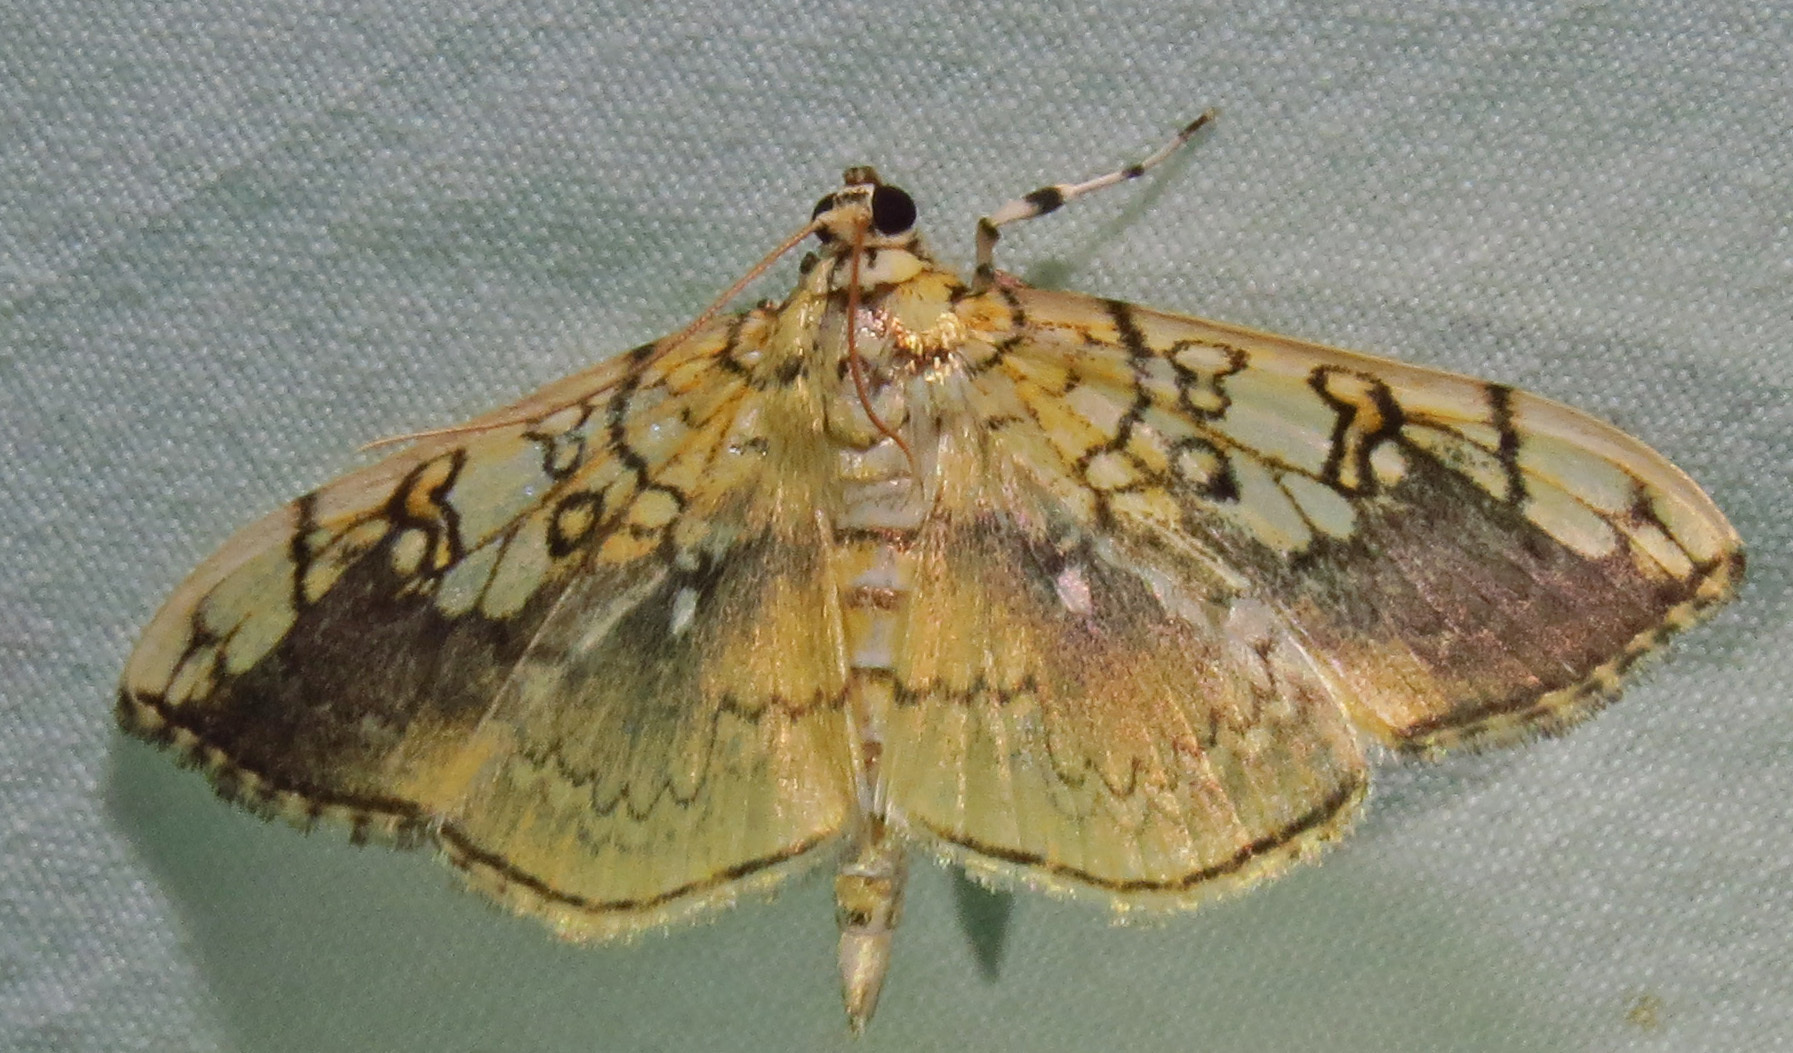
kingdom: Animalia
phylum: Arthropoda
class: Insecta
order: Lepidoptera
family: Crambidae
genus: Pantographa
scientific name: Pantographa limata
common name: Basswood leafroller moth
